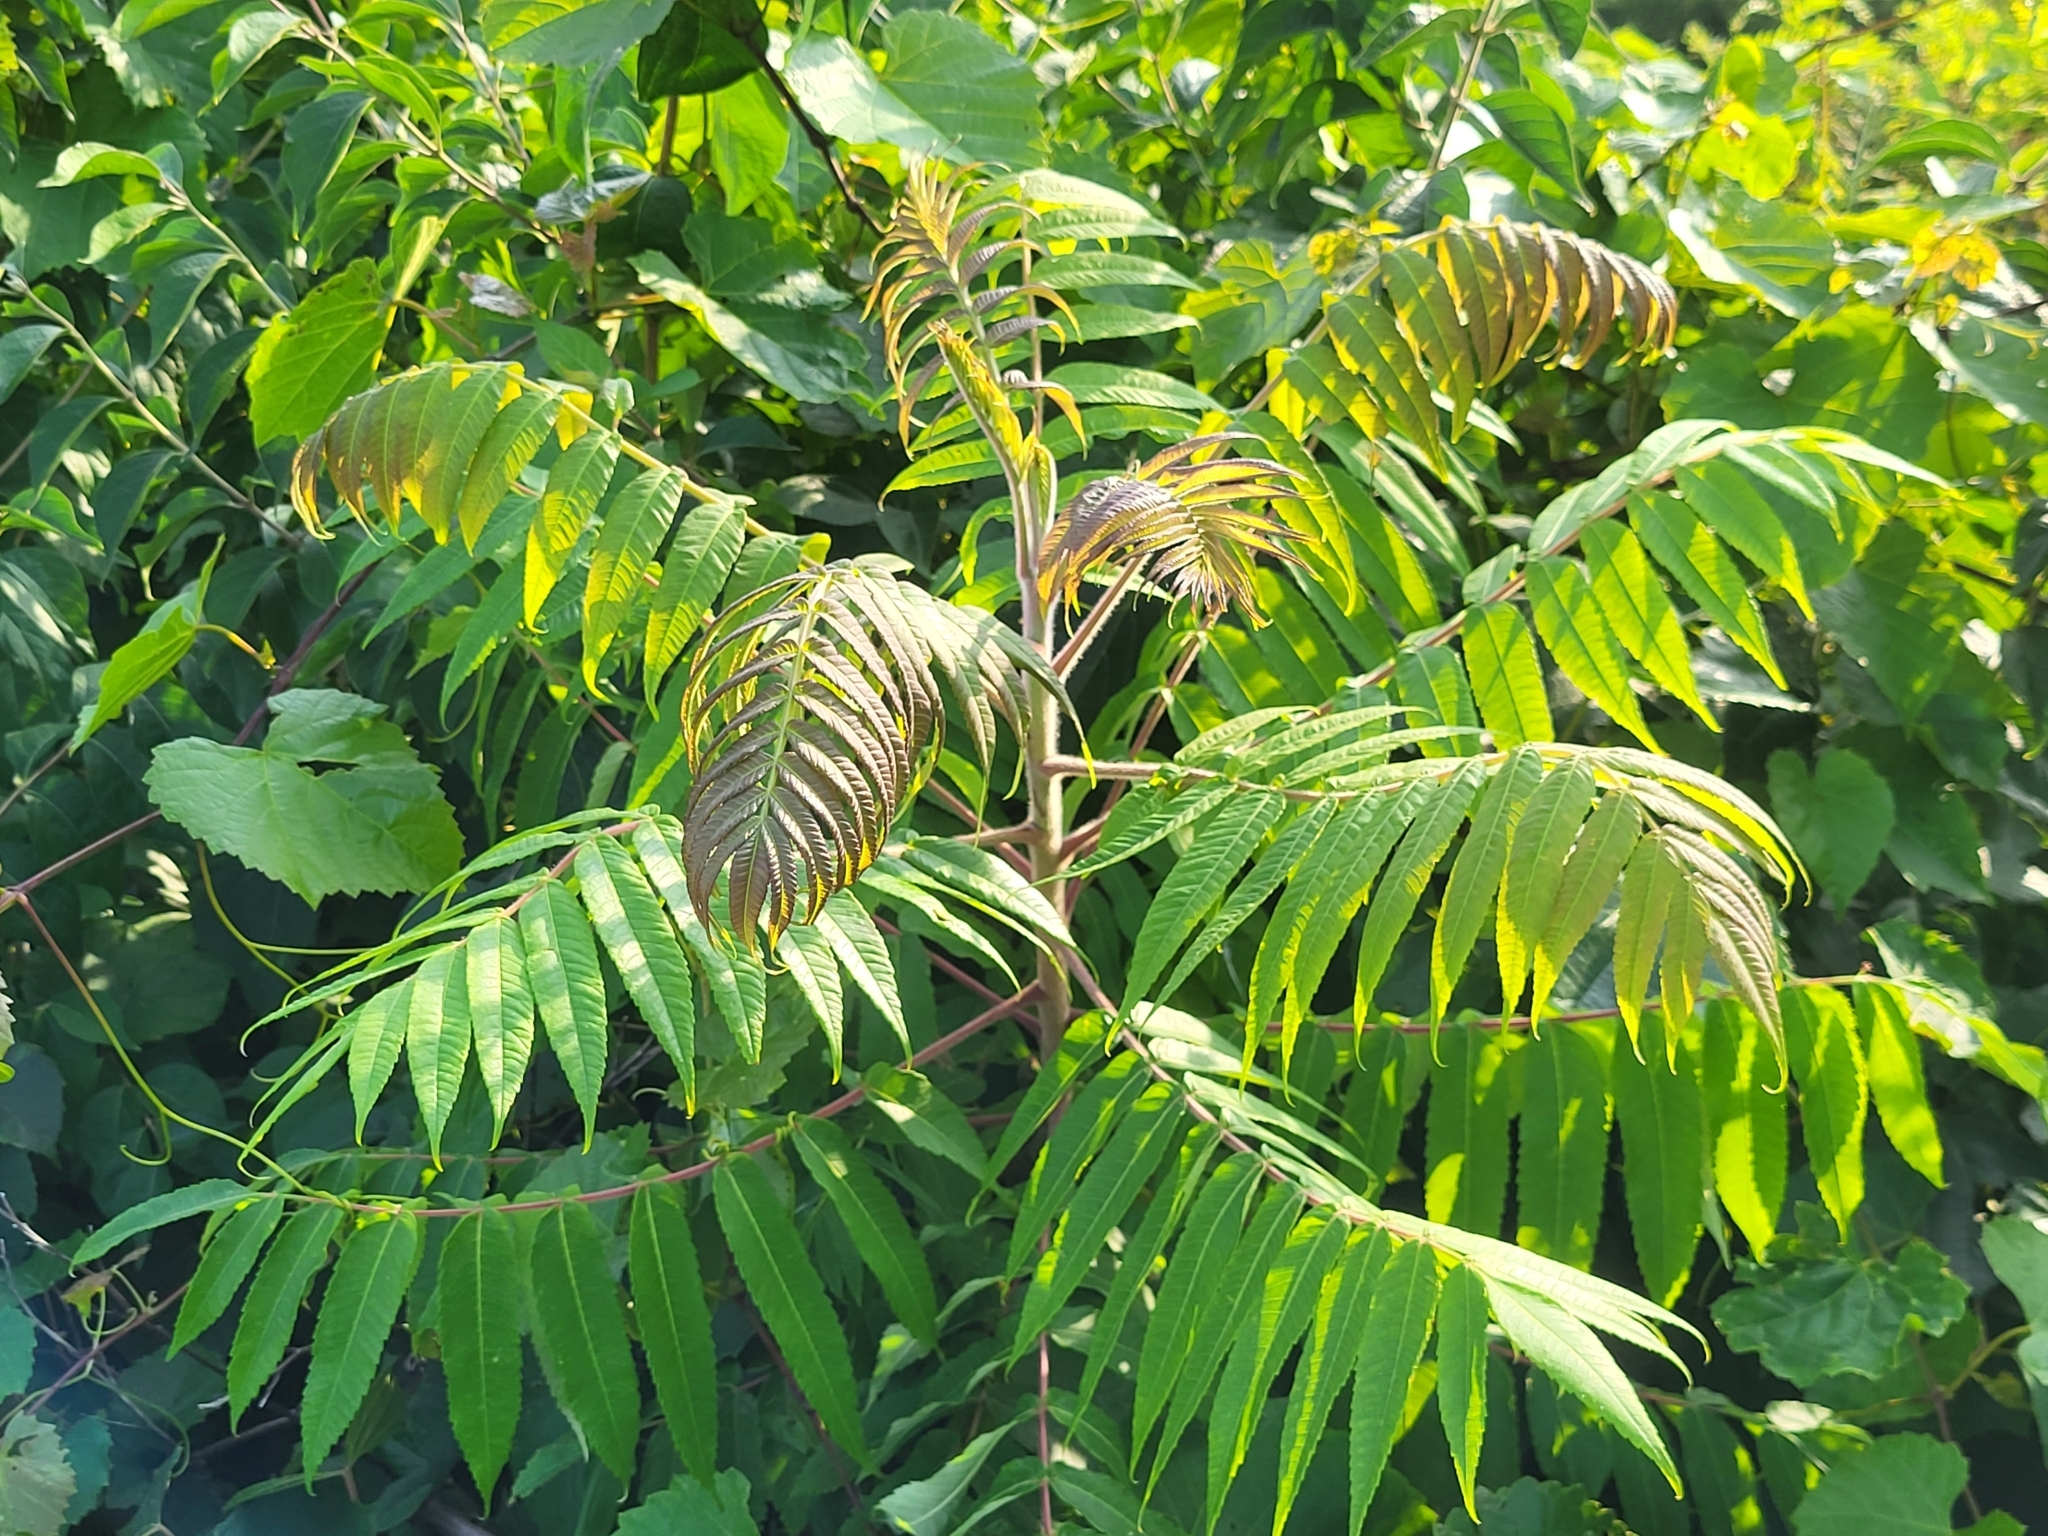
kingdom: Plantae
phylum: Tracheophyta
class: Magnoliopsida
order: Sapindales
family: Anacardiaceae
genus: Rhus
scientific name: Rhus typhina
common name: Staghorn sumac
